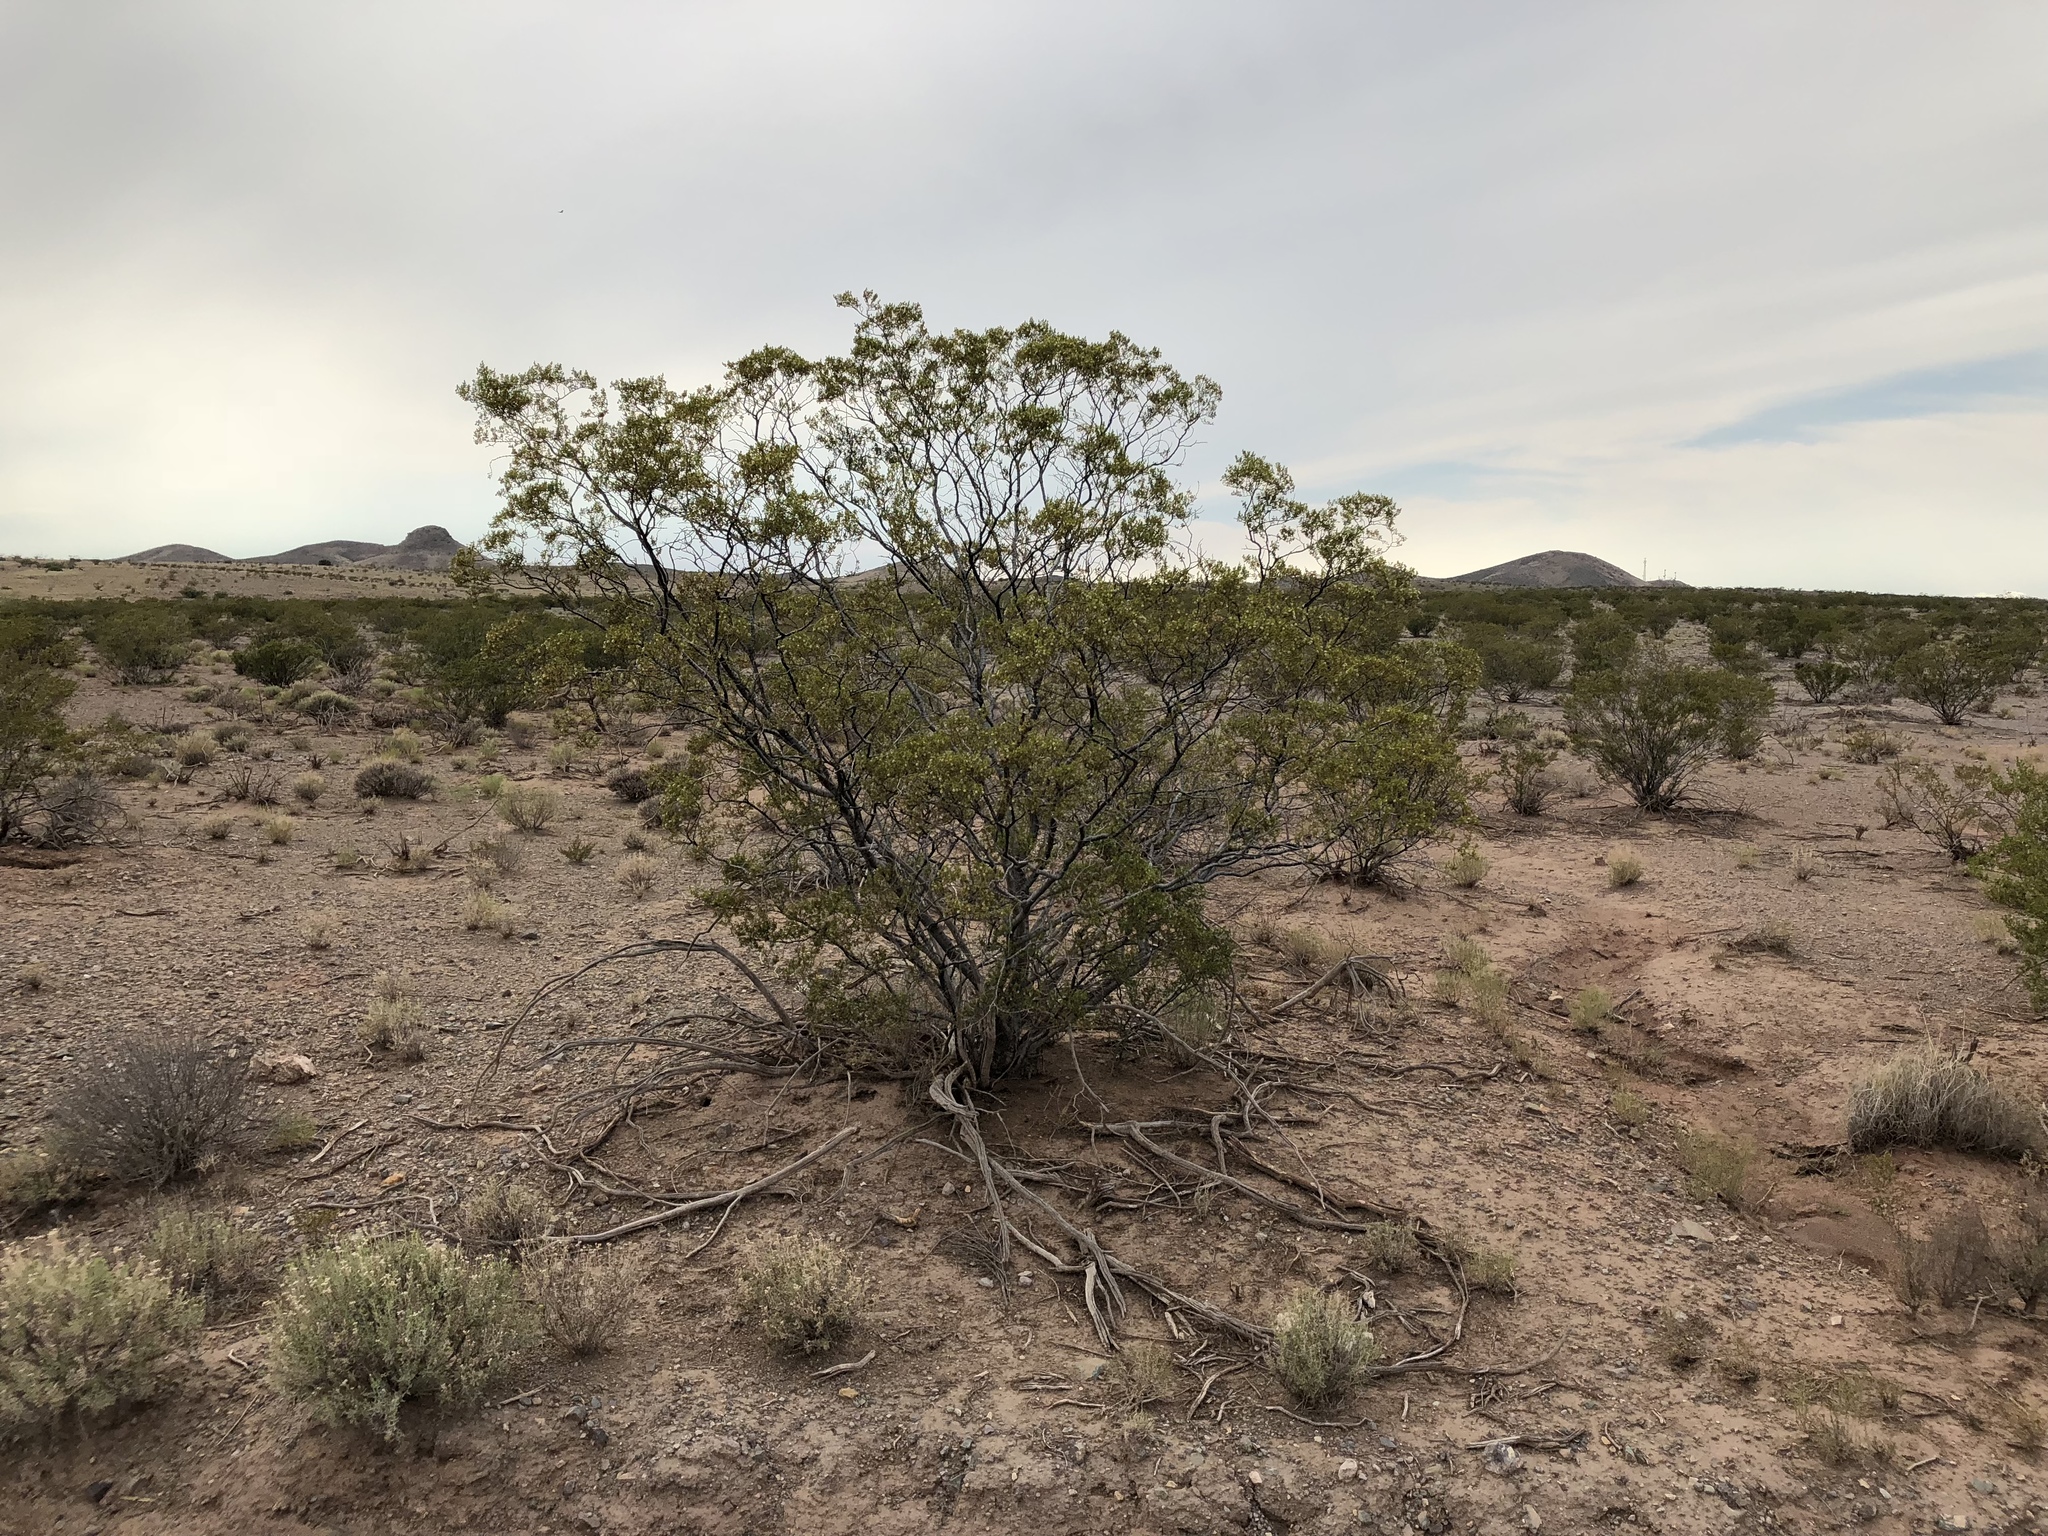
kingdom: Plantae
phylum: Tracheophyta
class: Magnoliopsida
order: Zygophyllales
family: Zygophyllaceae
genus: Larrea
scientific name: Larrea tridentata
